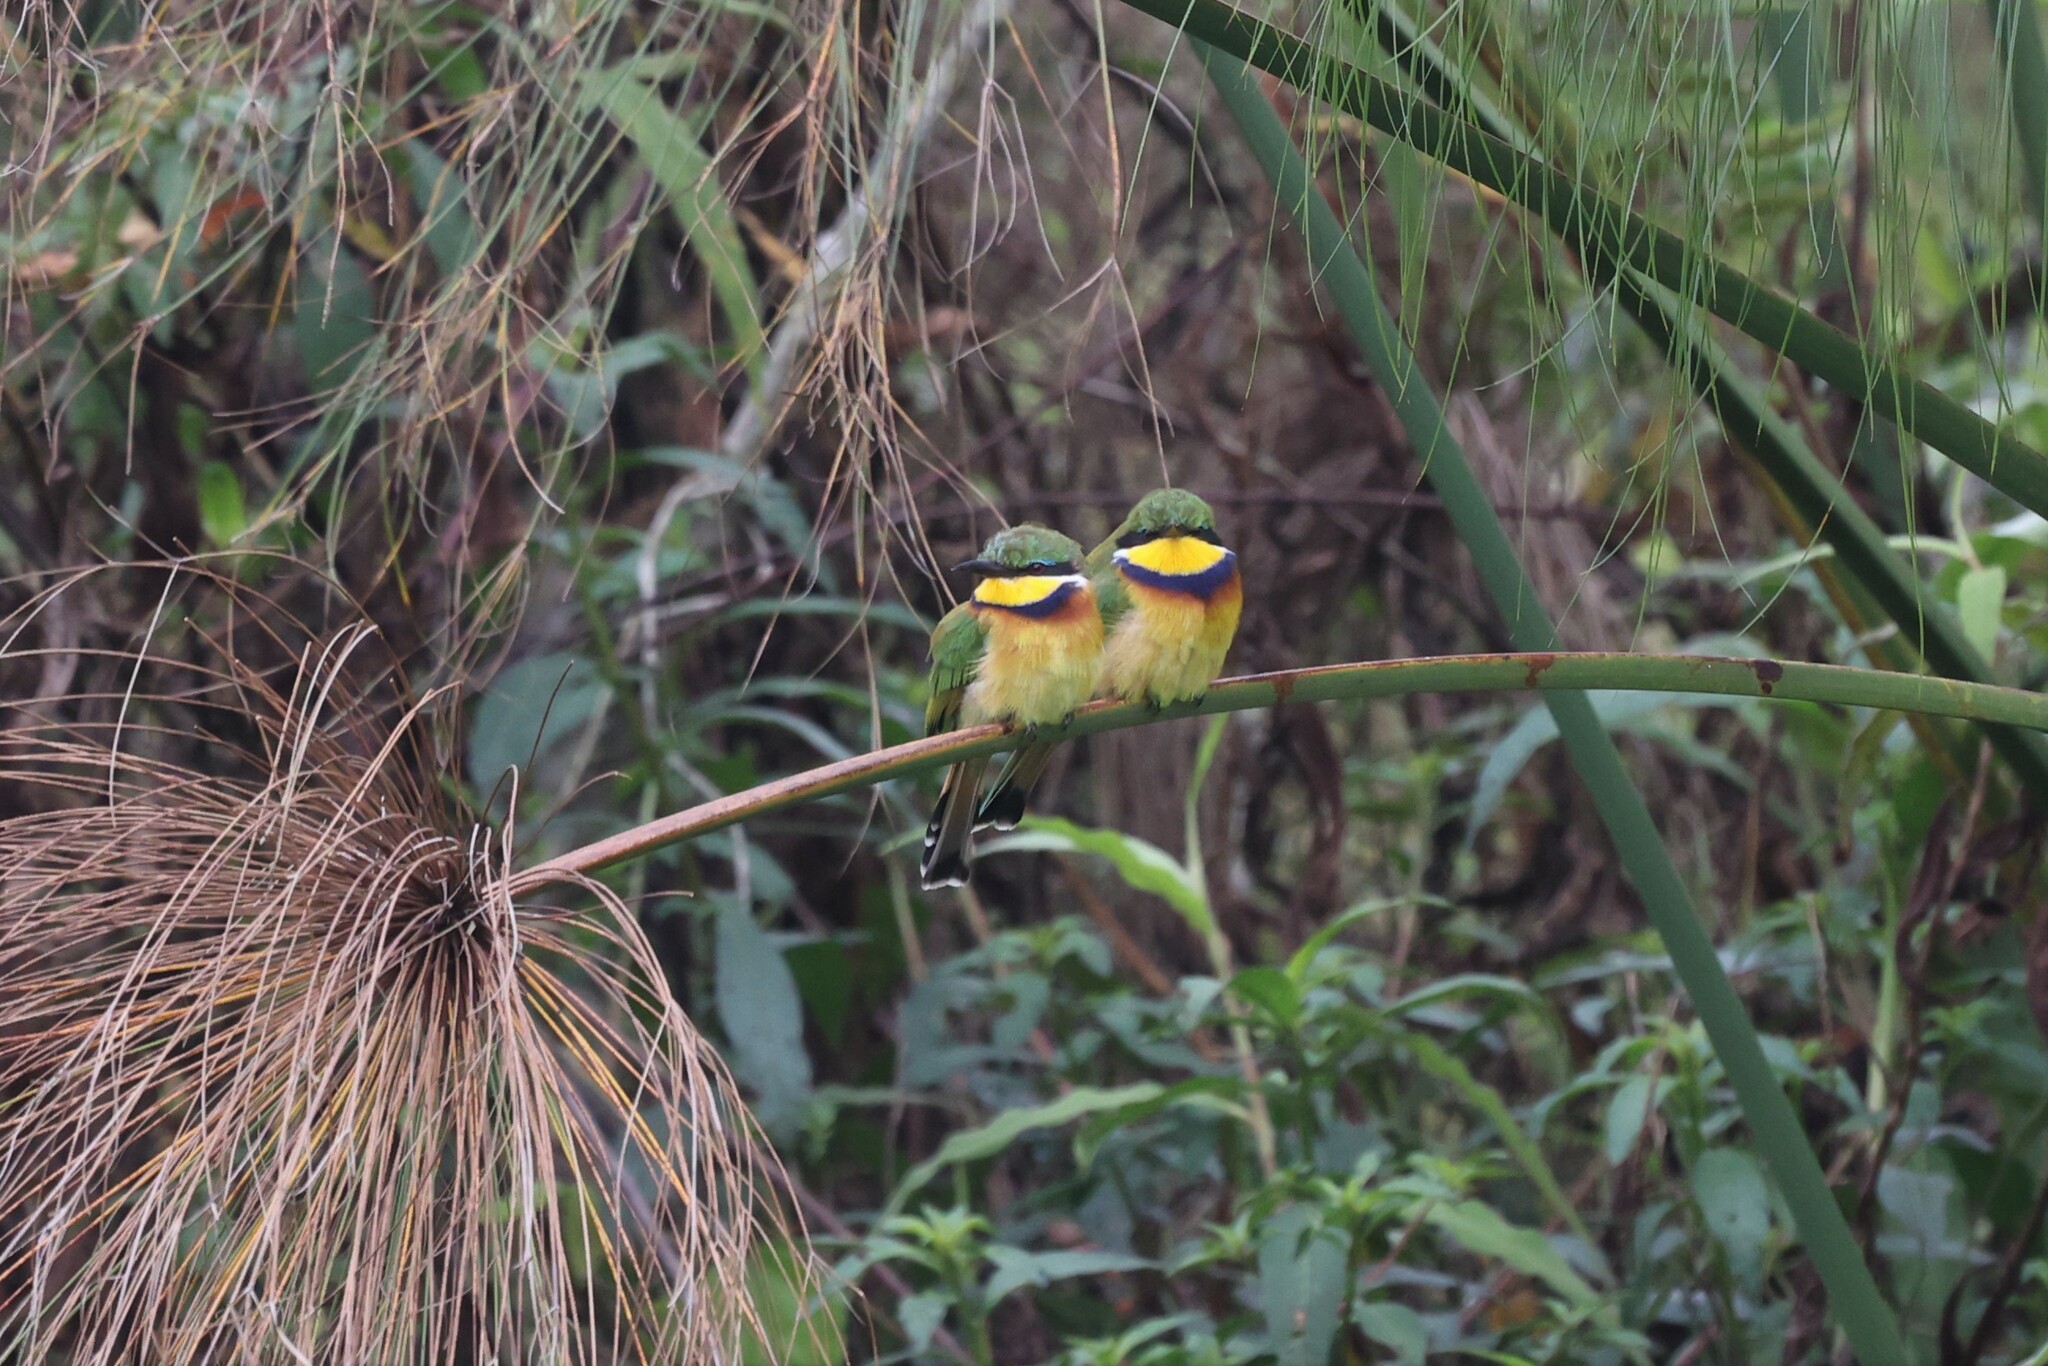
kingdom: Animalia
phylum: Chordata
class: Aves
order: Coraciiformes
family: Meropidae
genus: Merops
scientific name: Merops variegatus
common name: Blue-breasted bee-eater
